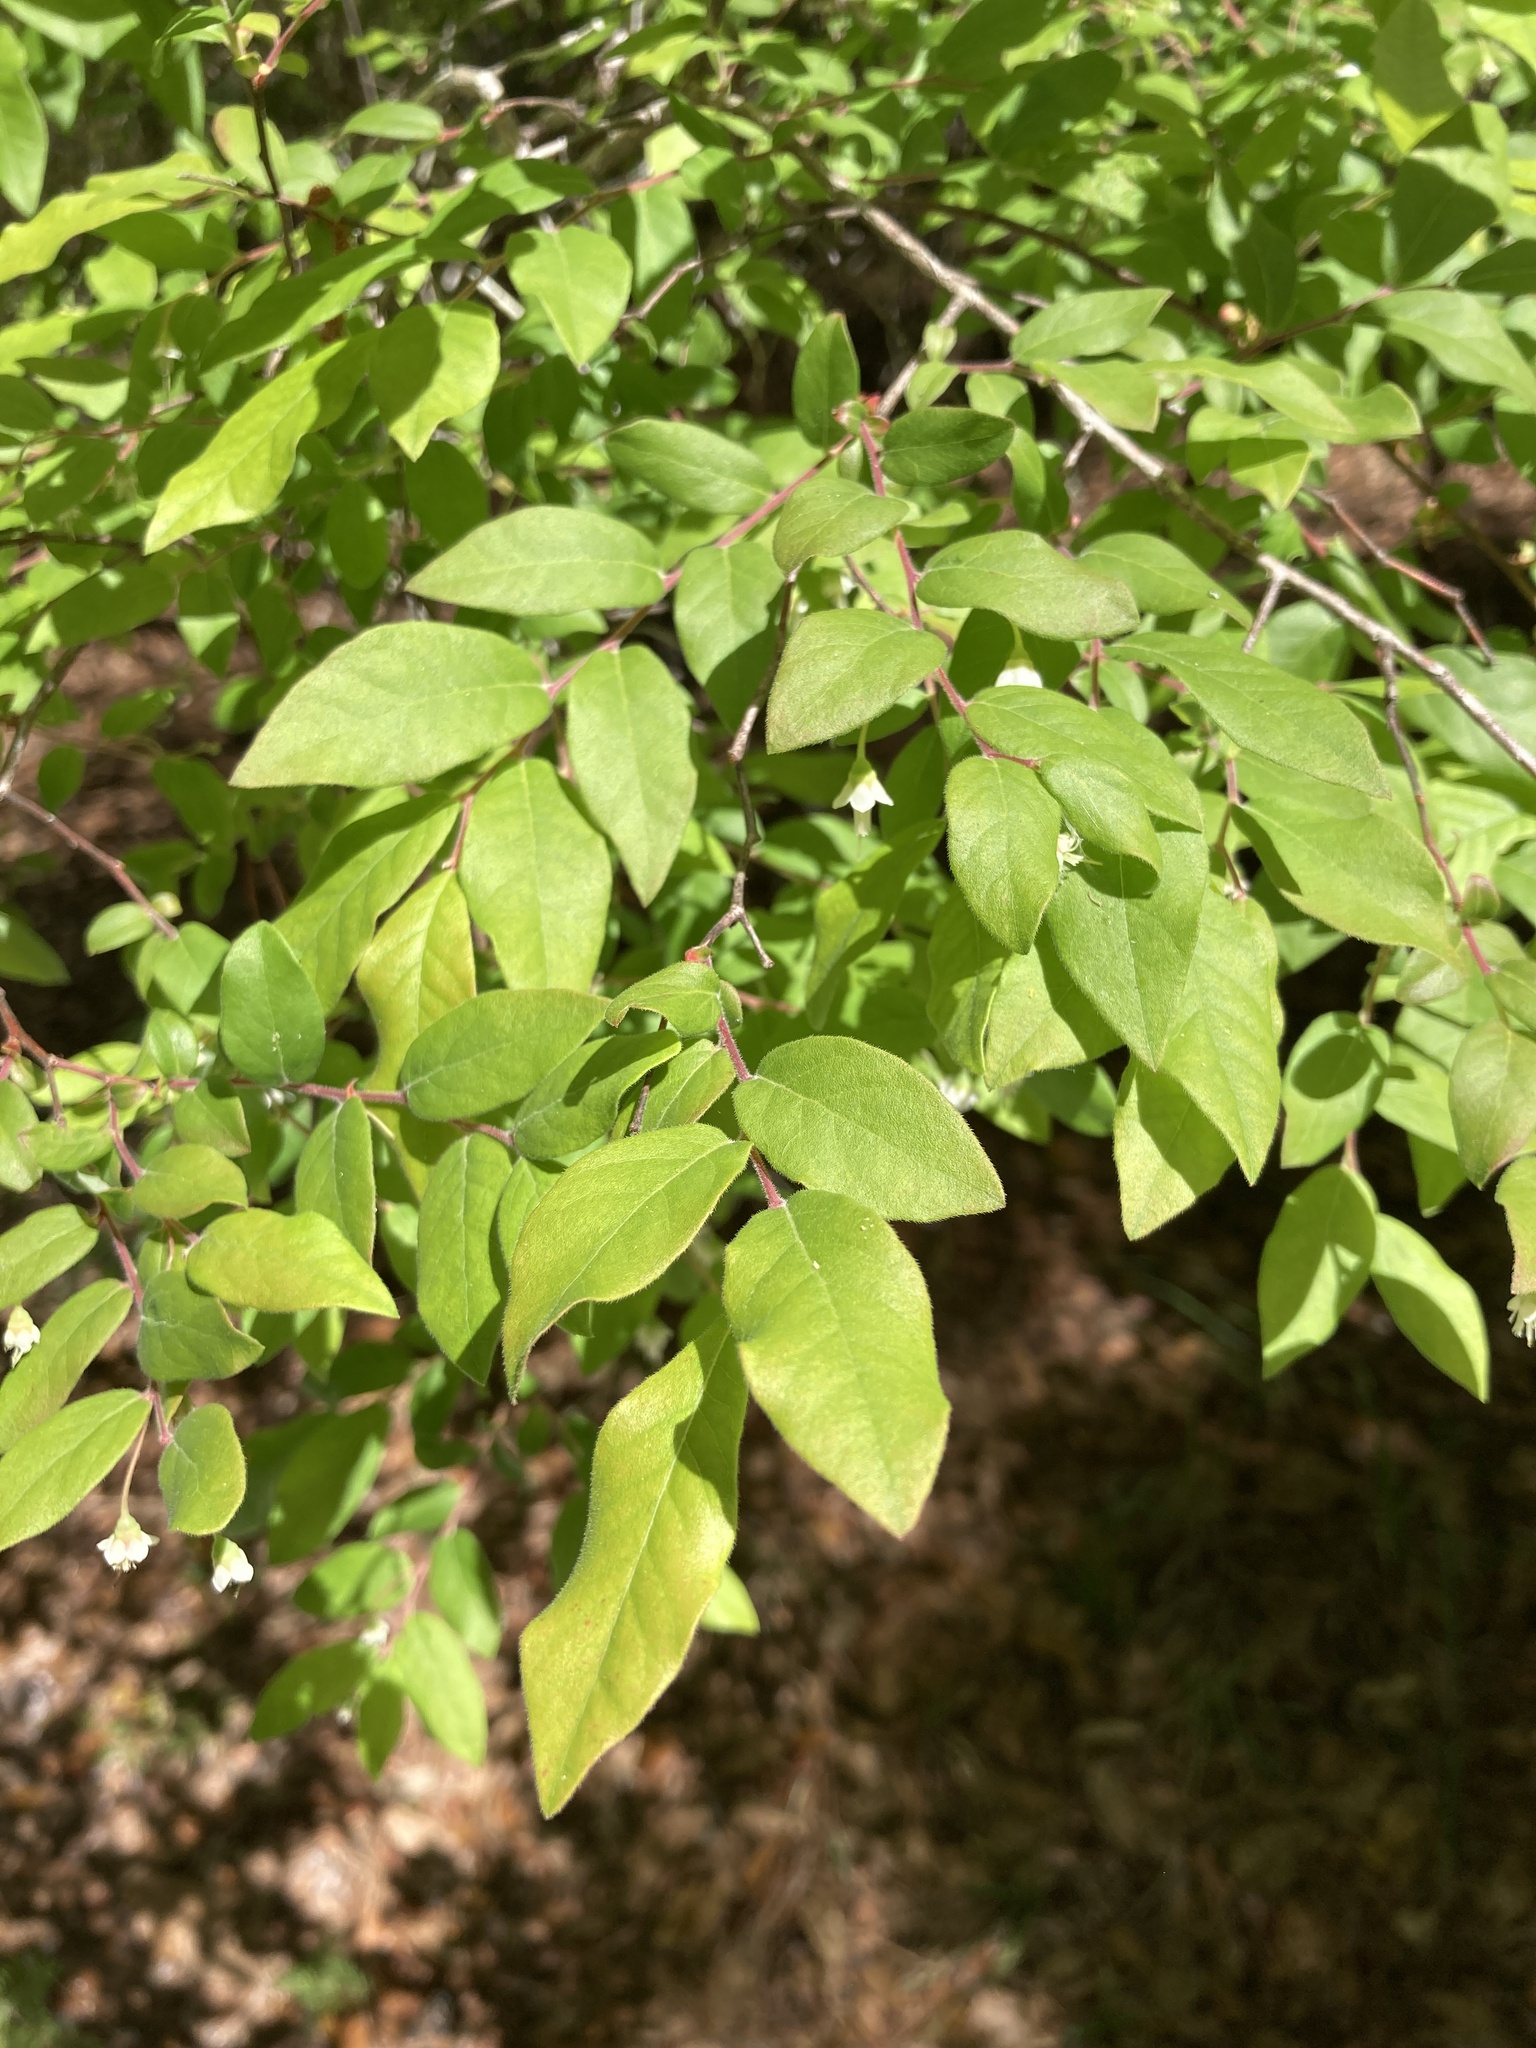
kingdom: Plantae
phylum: Tracheophyta
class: Magnoliopsida
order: Ericales
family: Ericaceae
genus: Vaccinium
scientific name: Vaccinium stamineum
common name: Deerberry
